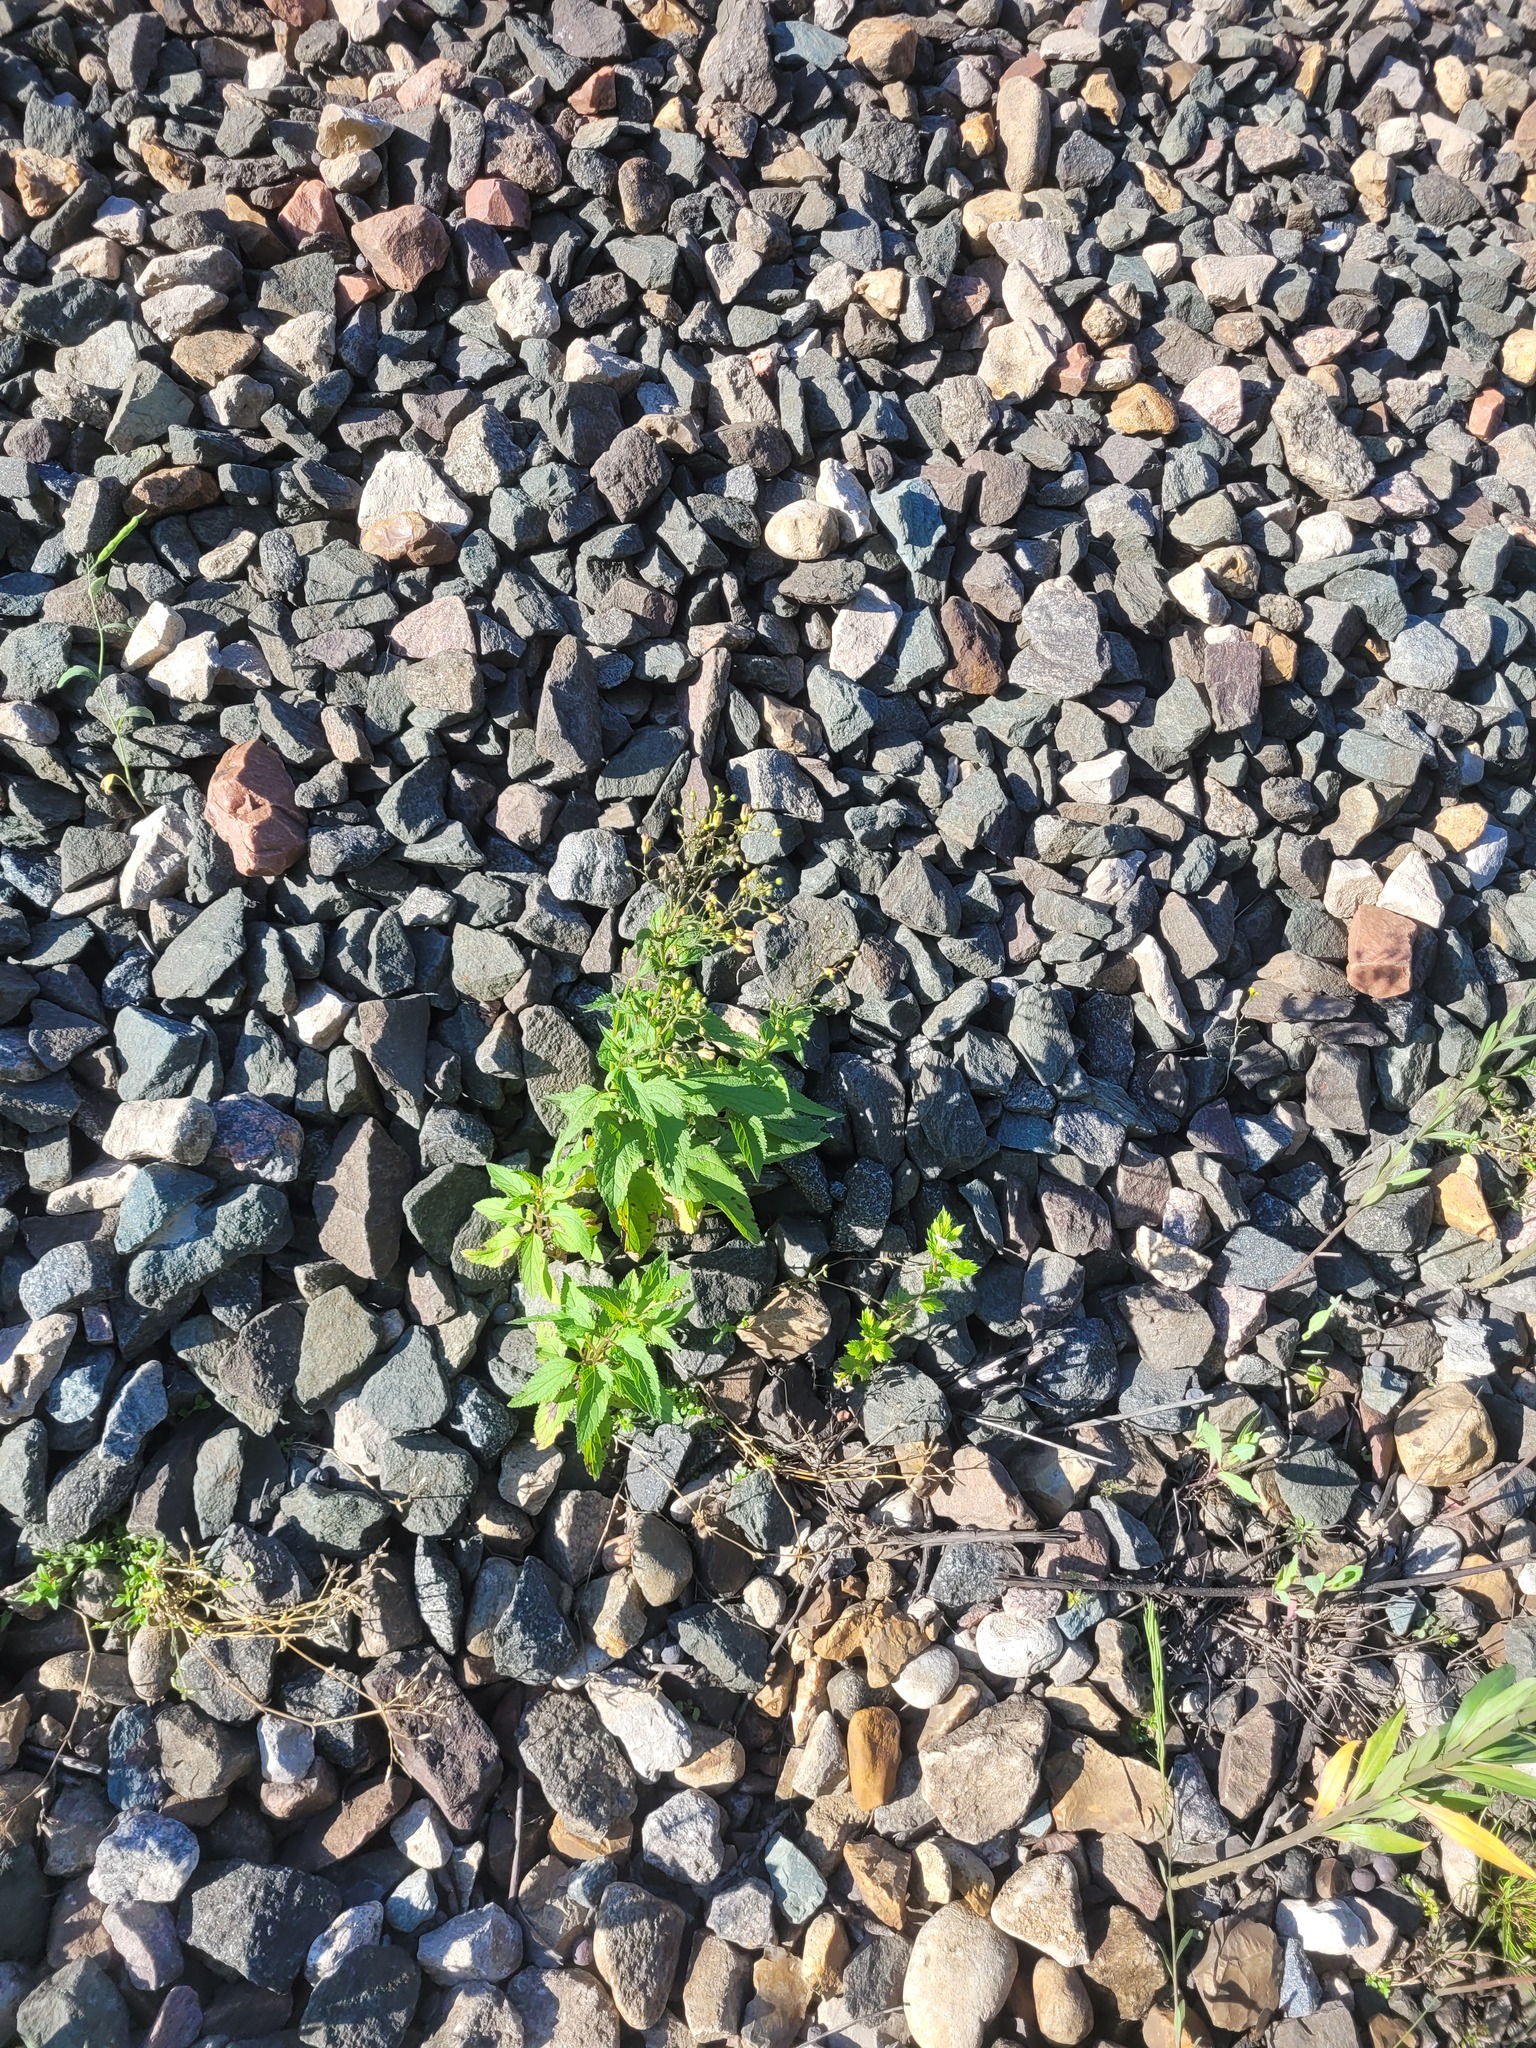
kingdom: Plantae
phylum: Tracheophyta
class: Magnoliopsida
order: Lamiales
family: Scrophulariaceae
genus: Scrophularia
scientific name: Scrophularia nodosa
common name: Common figwort
